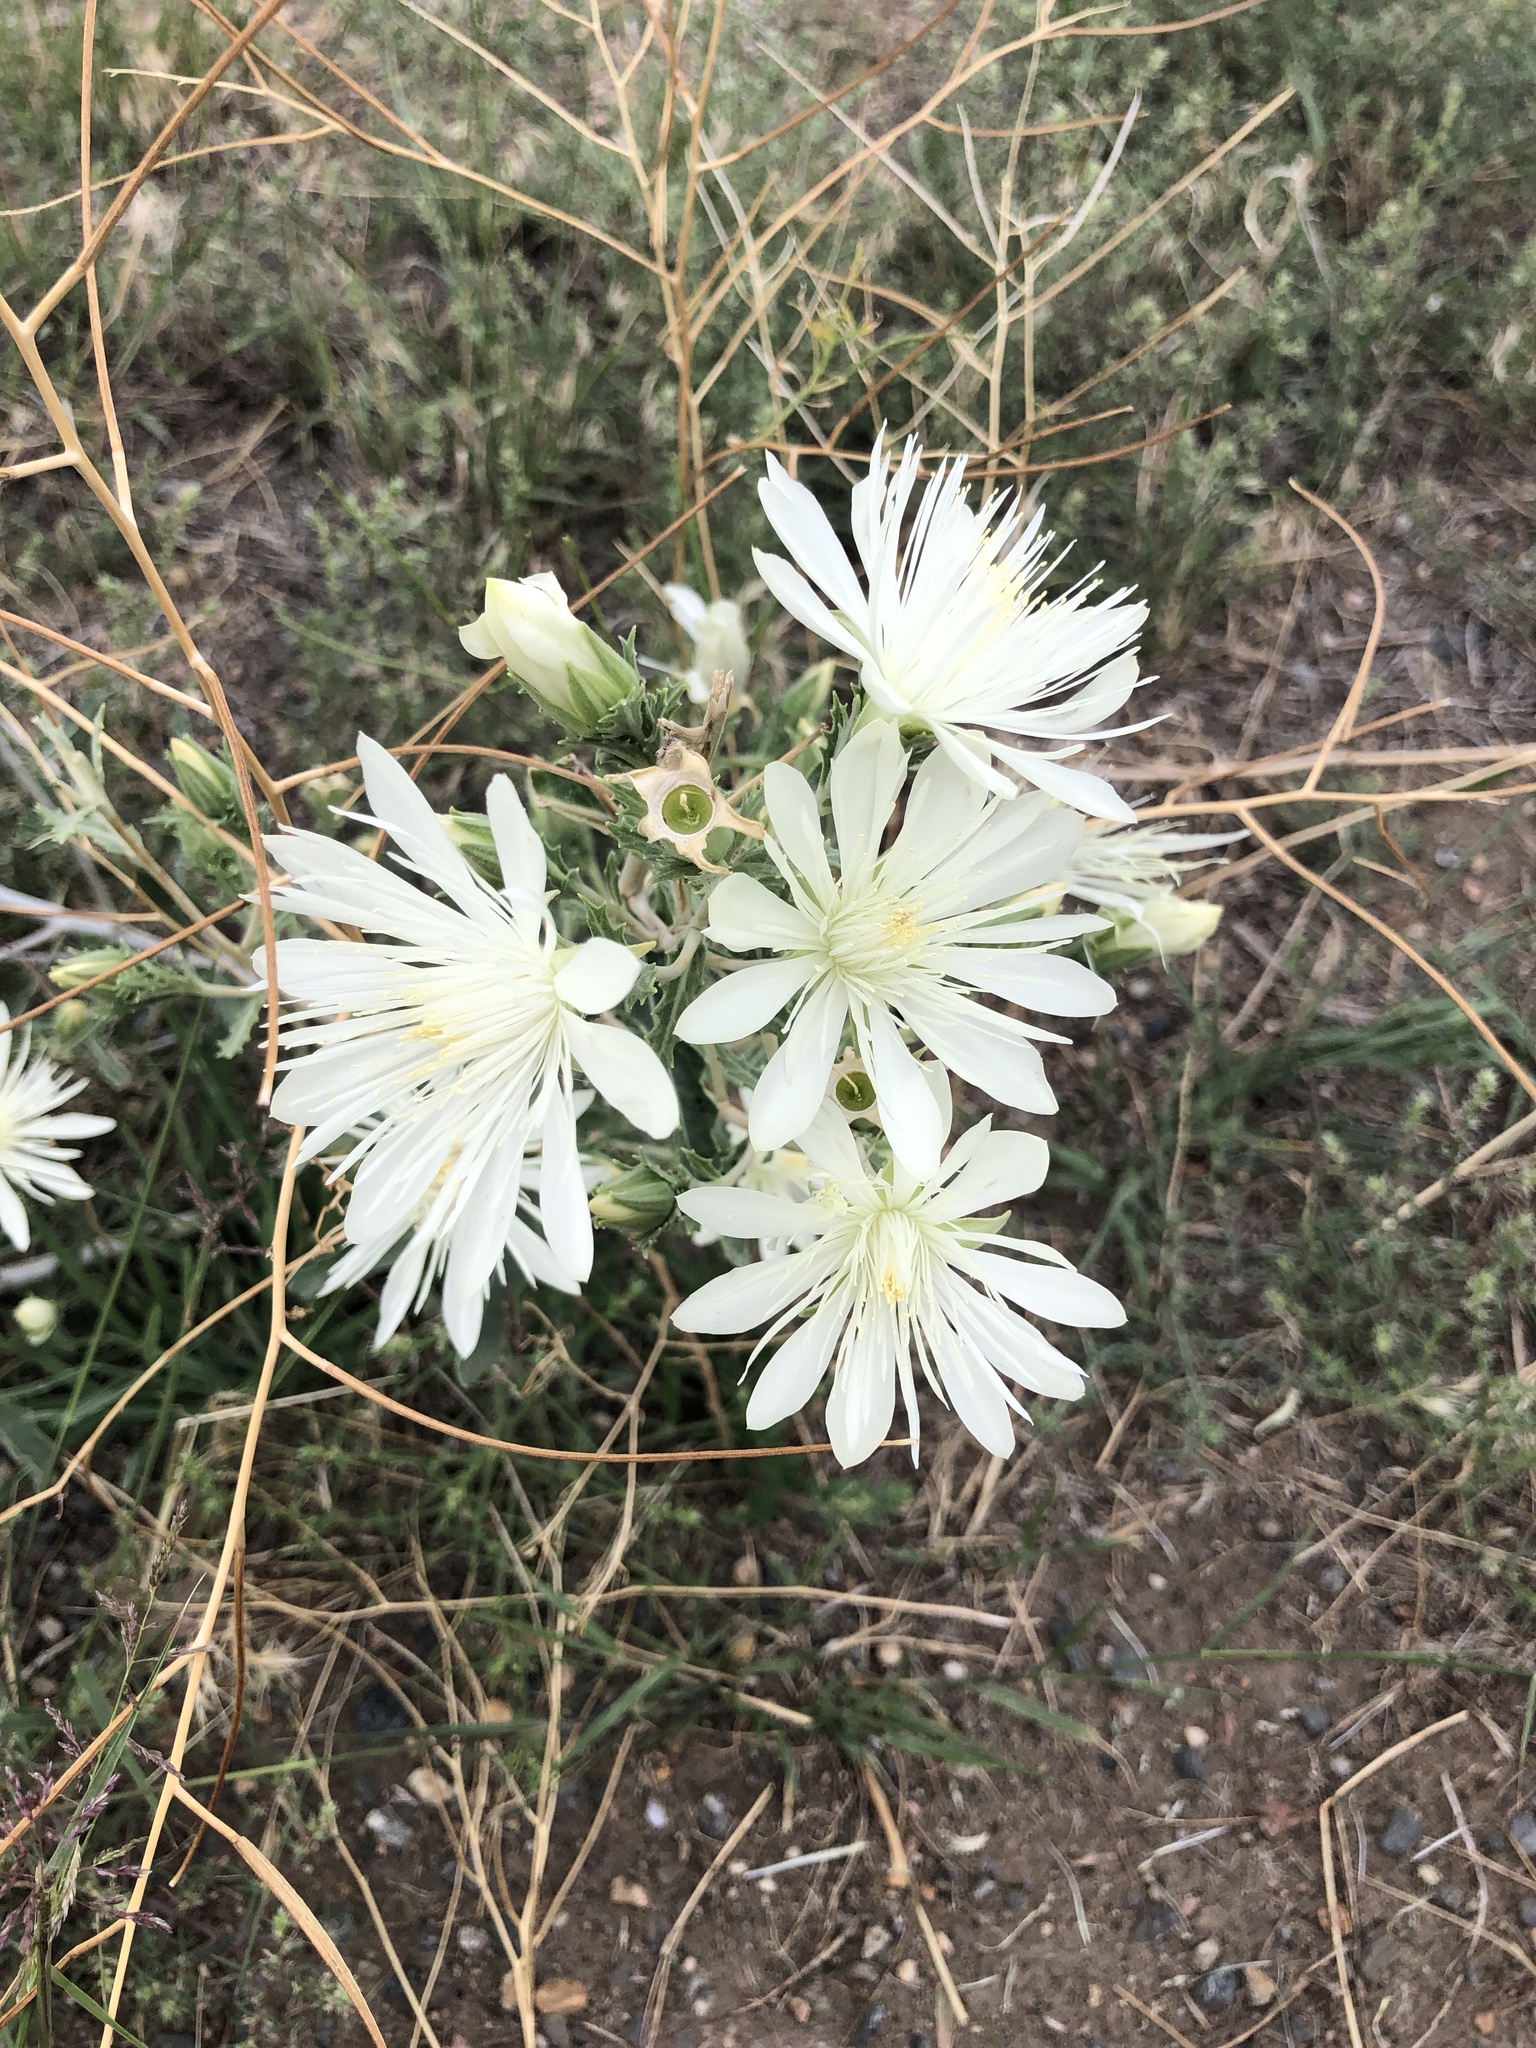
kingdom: Plantae
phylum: Tracheophyta
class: Magnoliopsida
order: Cornales
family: Loasaceae
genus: Mentzelia
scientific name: Mentzelia nuda
